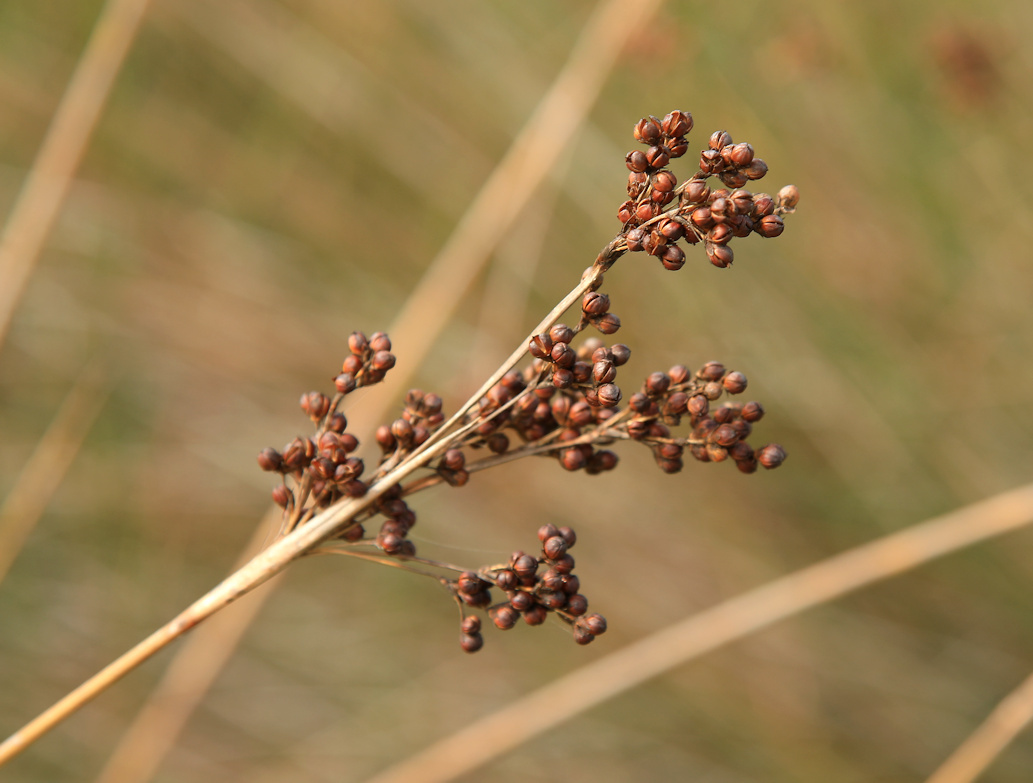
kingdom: Plantae
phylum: Tracheophyta
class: Liliopsida
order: Poales
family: Juncaceae
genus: Juncus
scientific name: Juncus acutus
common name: Sharp rush
